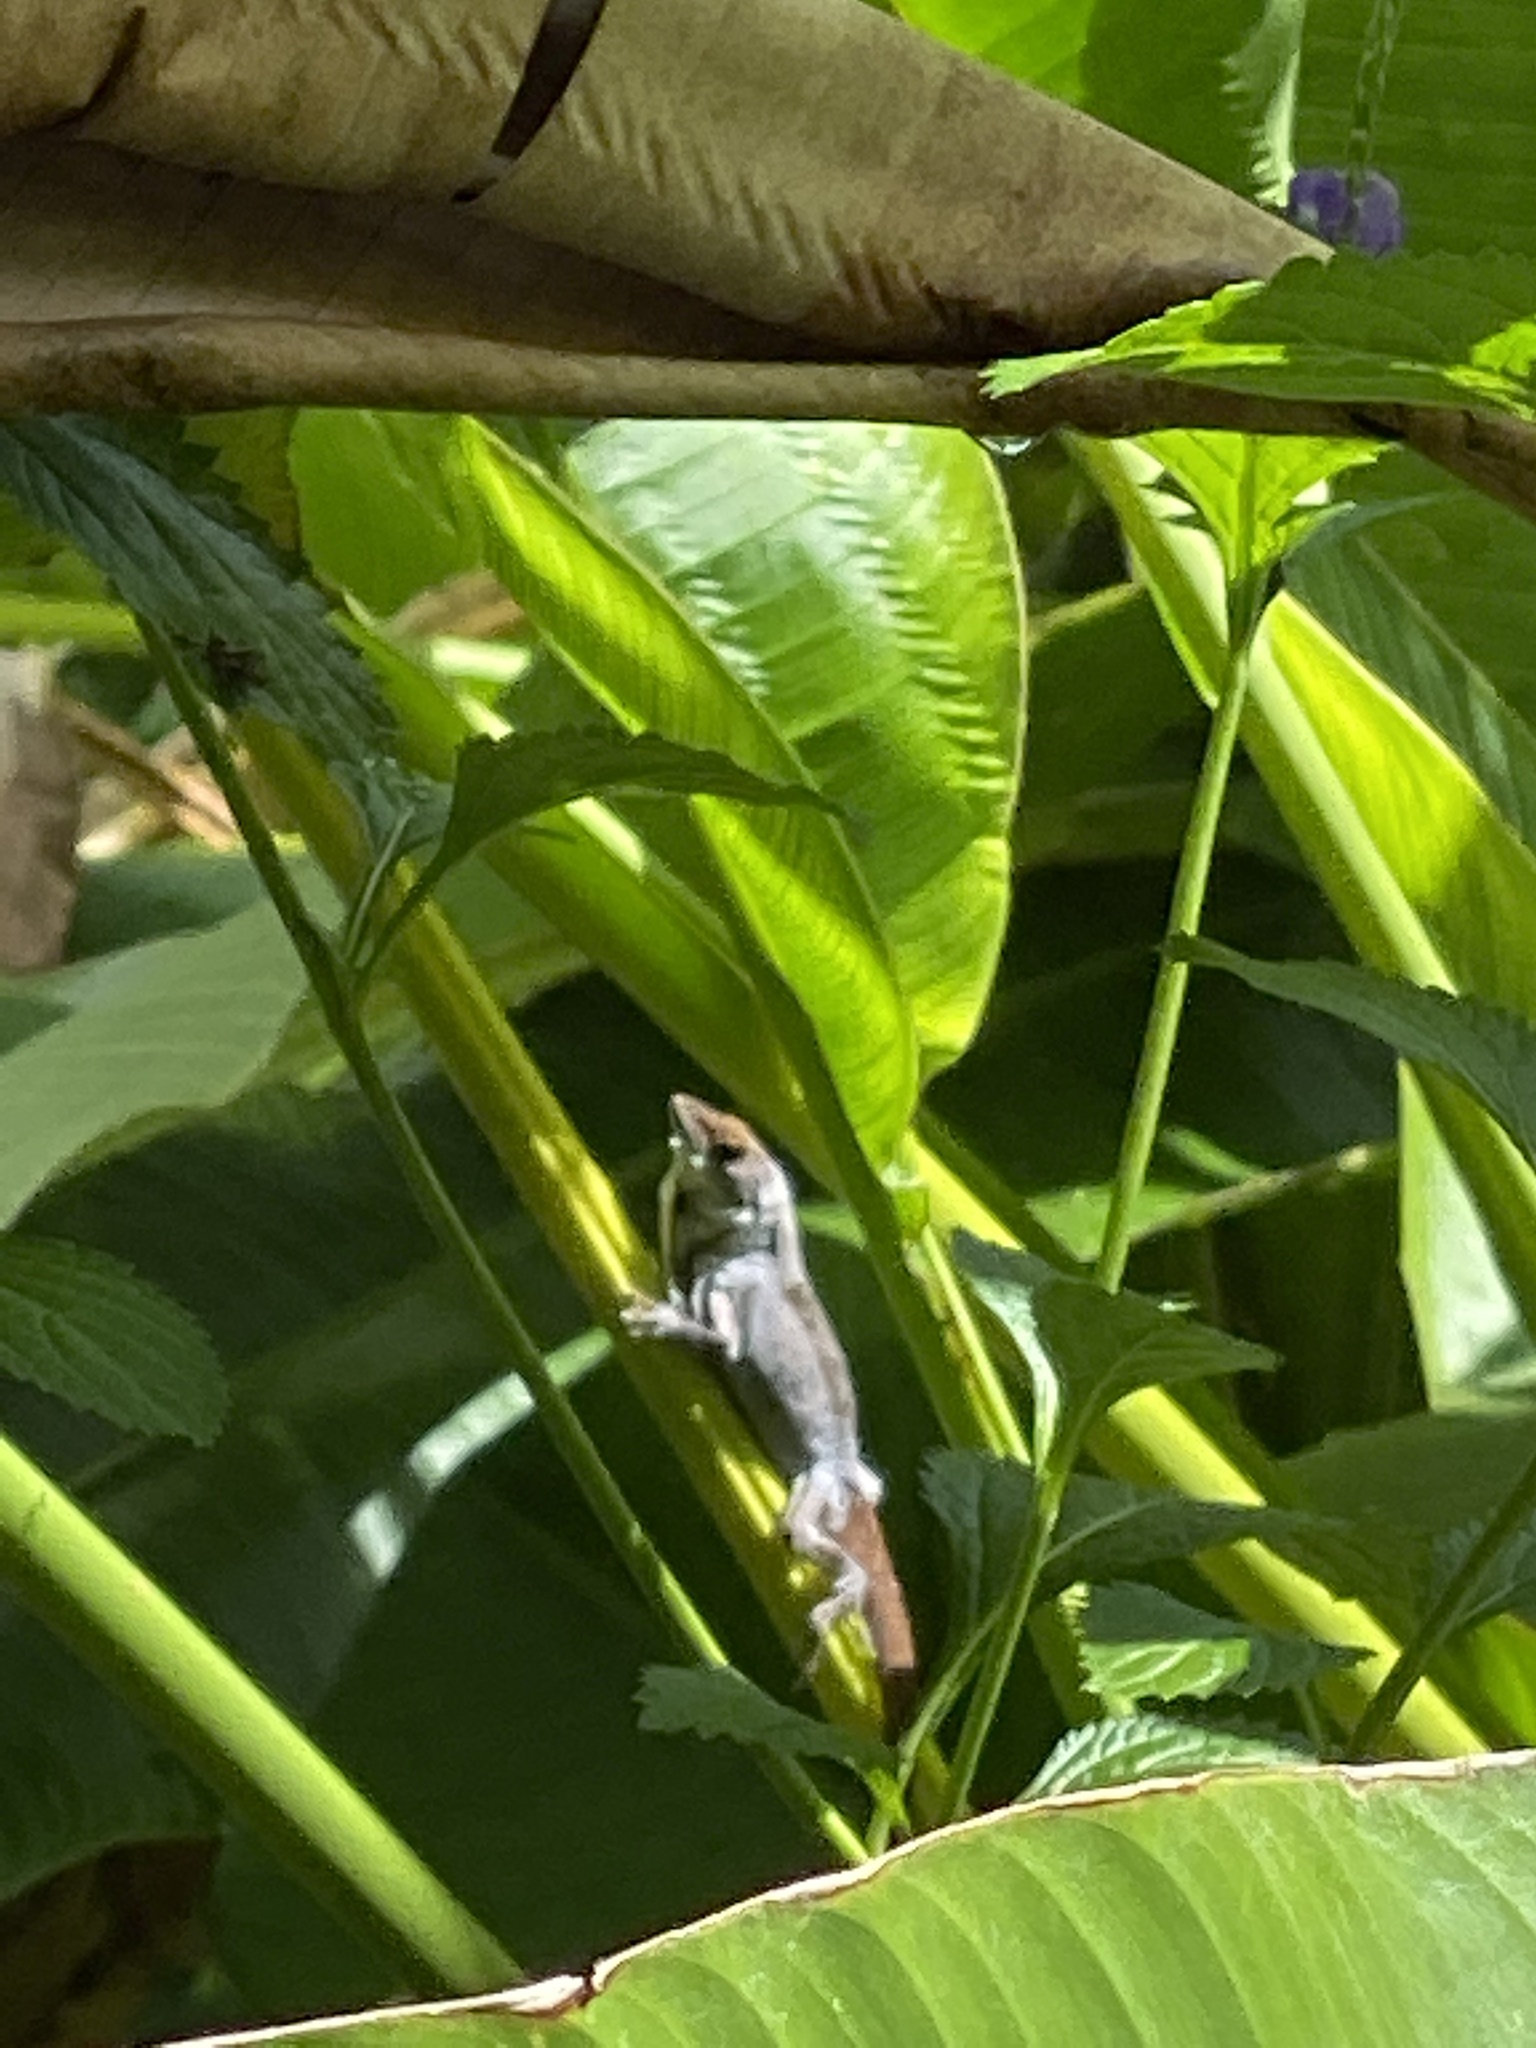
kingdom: Animalia
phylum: Chordata
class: Squamata
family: Dactyloidae
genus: Anolis
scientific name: Anolis sagrei
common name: Brown anole
